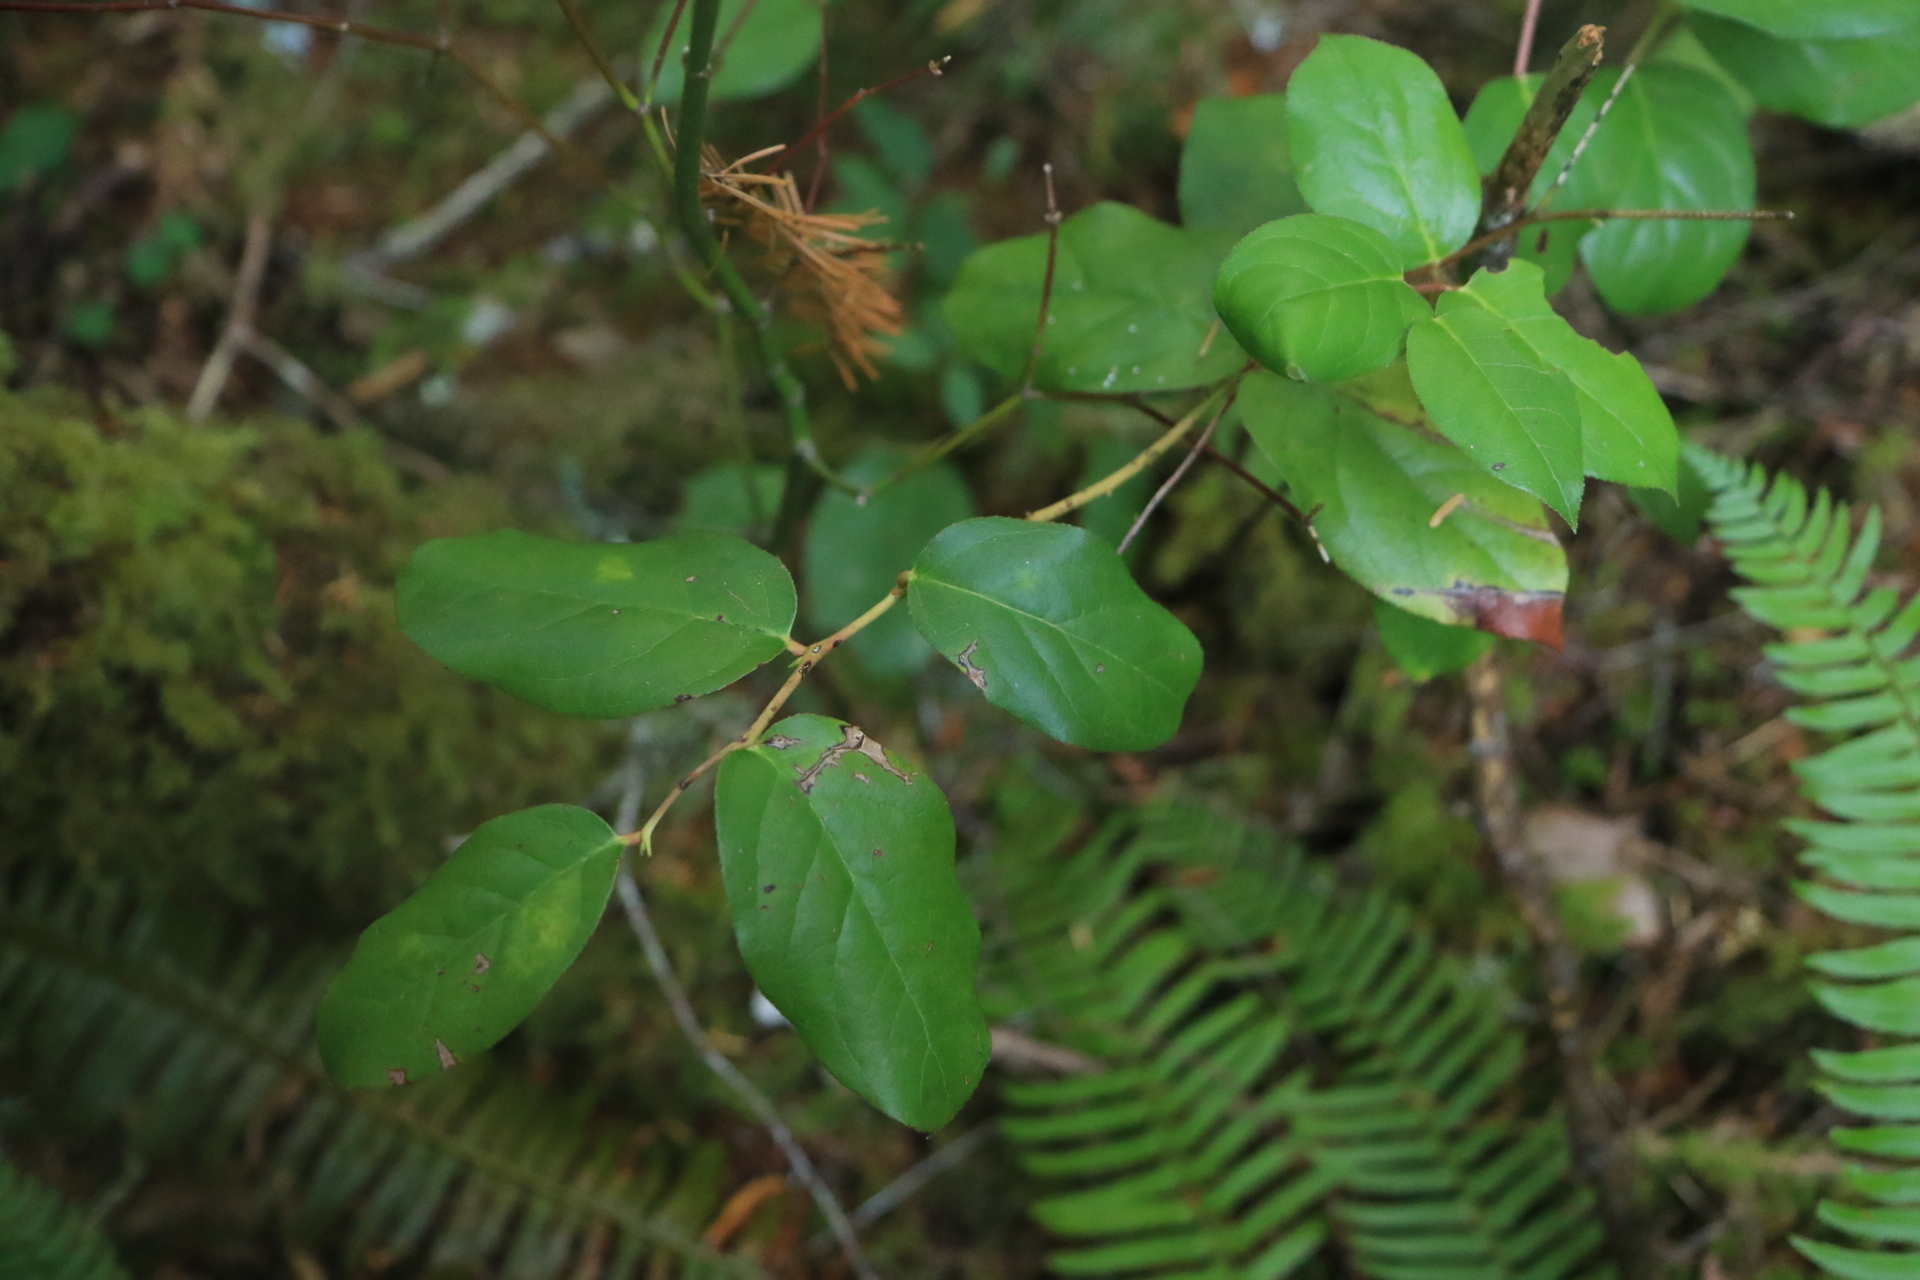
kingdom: Plantae
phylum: Tracheophyta
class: Magnoliopsida
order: Ericales
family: Ericaceae
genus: Gaultheria
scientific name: Gaultheria shallon
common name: Shallon
